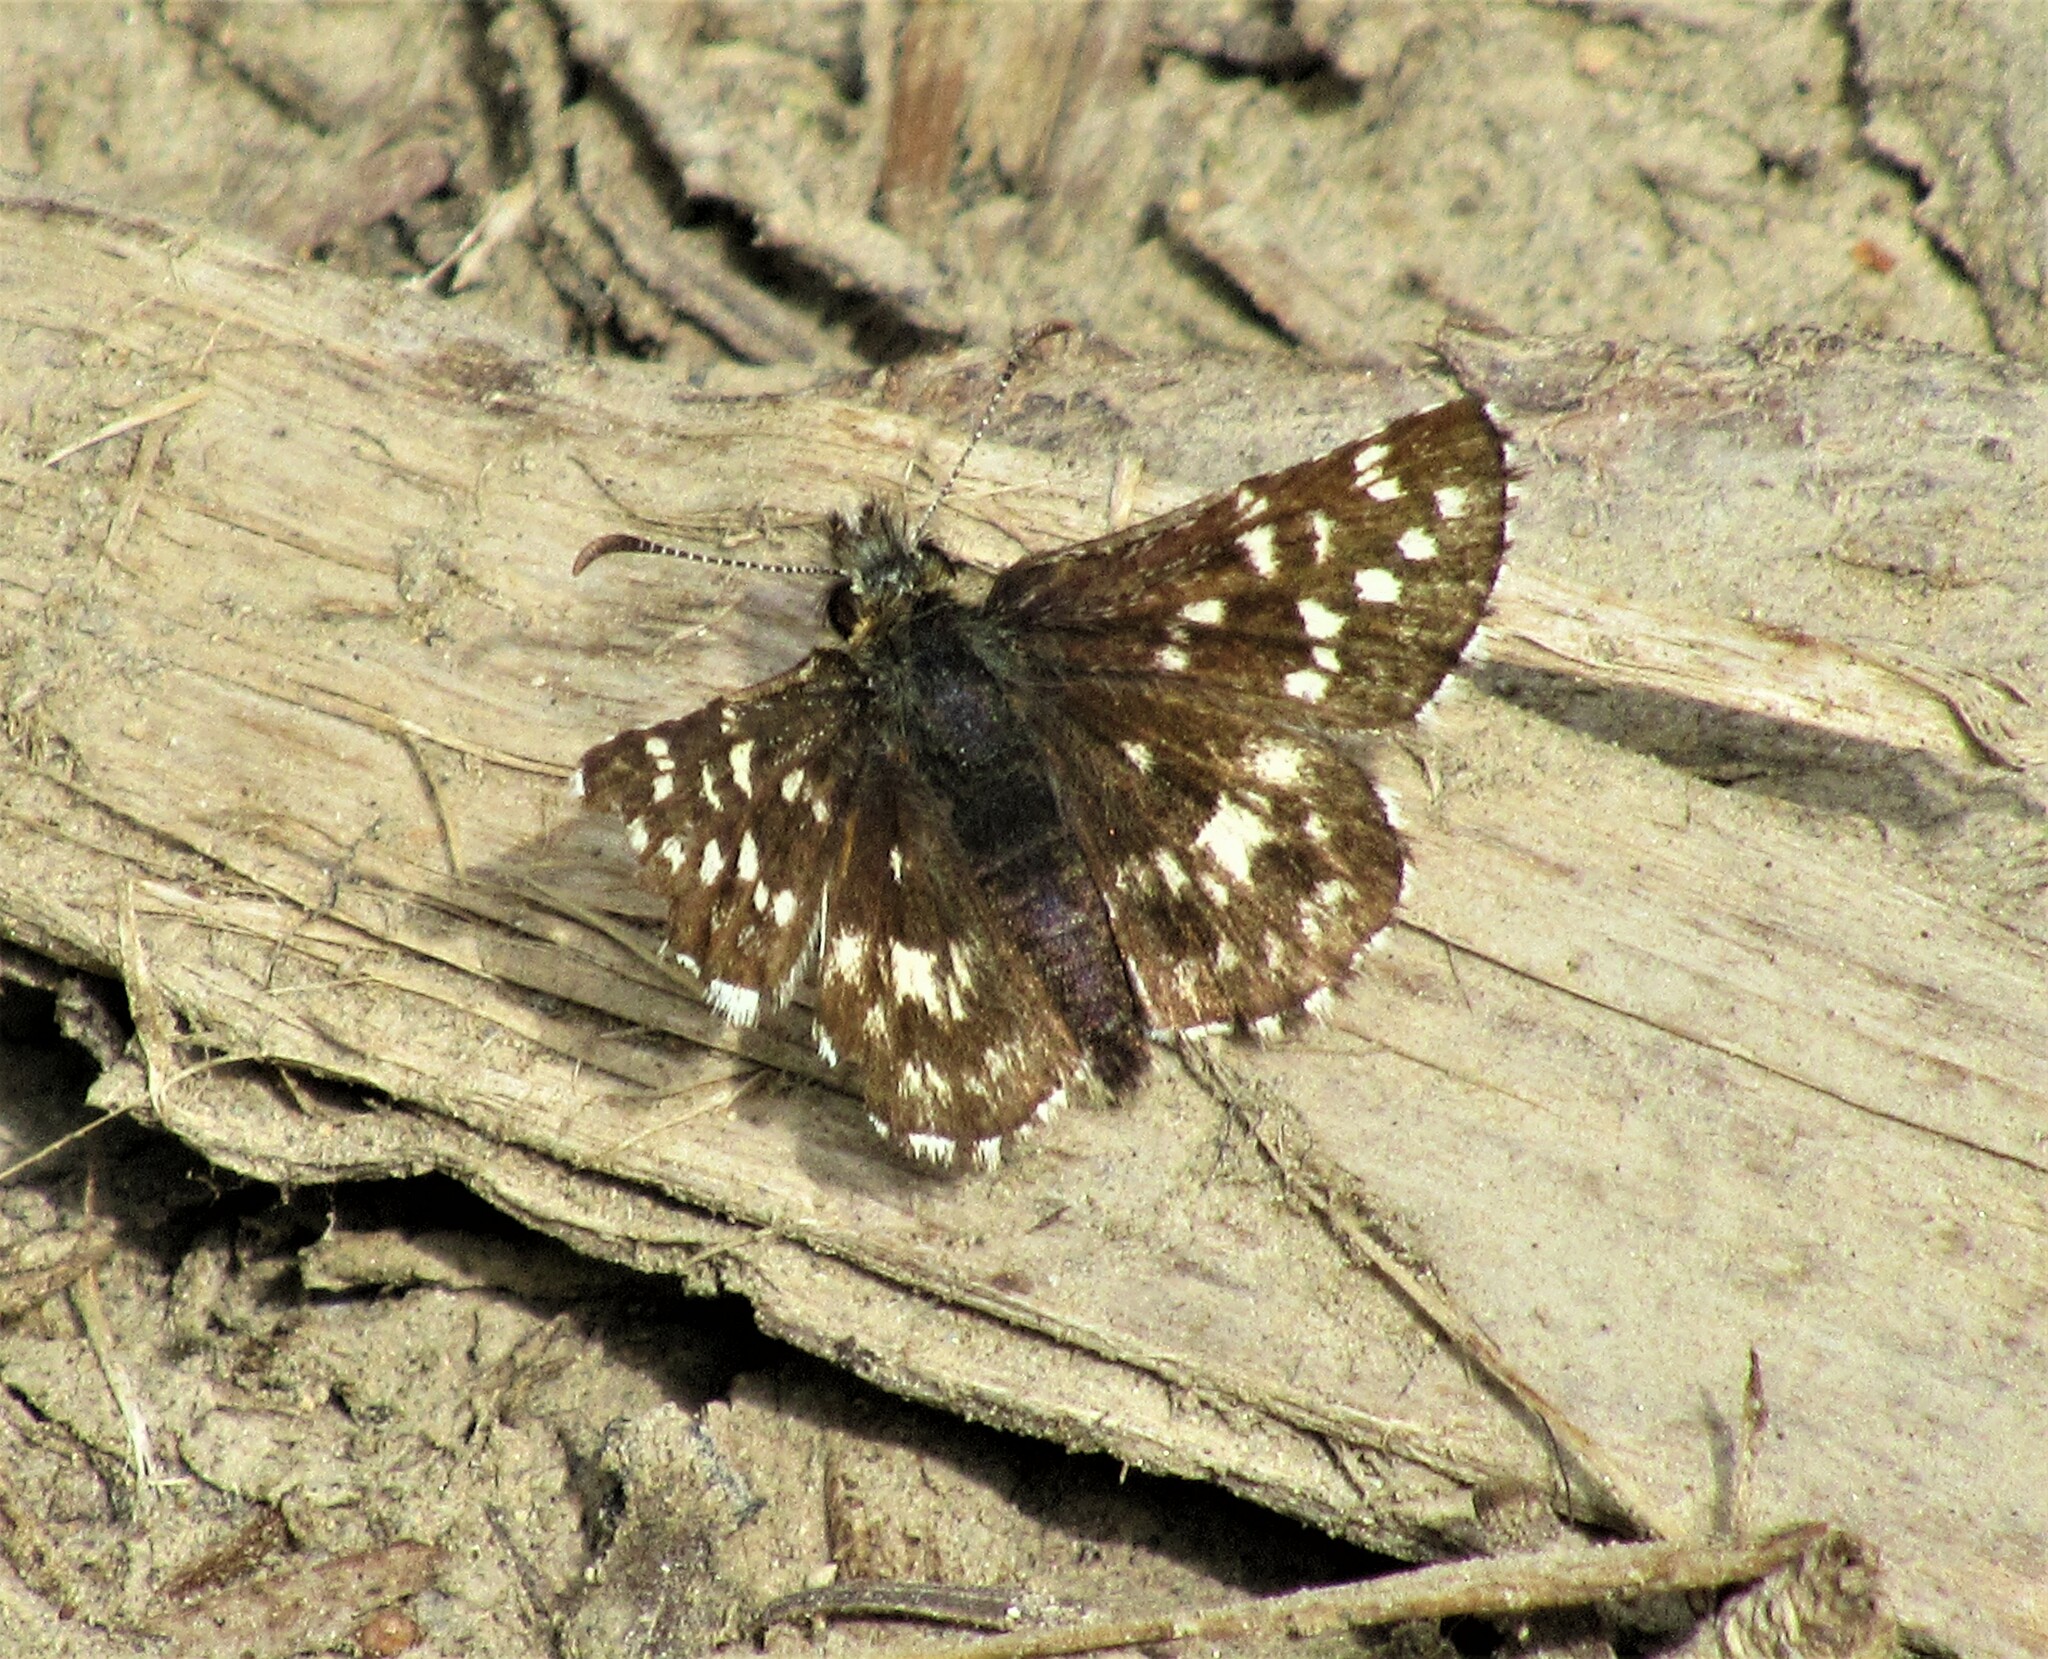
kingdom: Animalia
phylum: Arthropoda
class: Insecta
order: Lepidoptera
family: Hesperiidae
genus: Pyrgus
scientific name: Pyrgus ruralis
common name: Two-banded checkered-skipper
